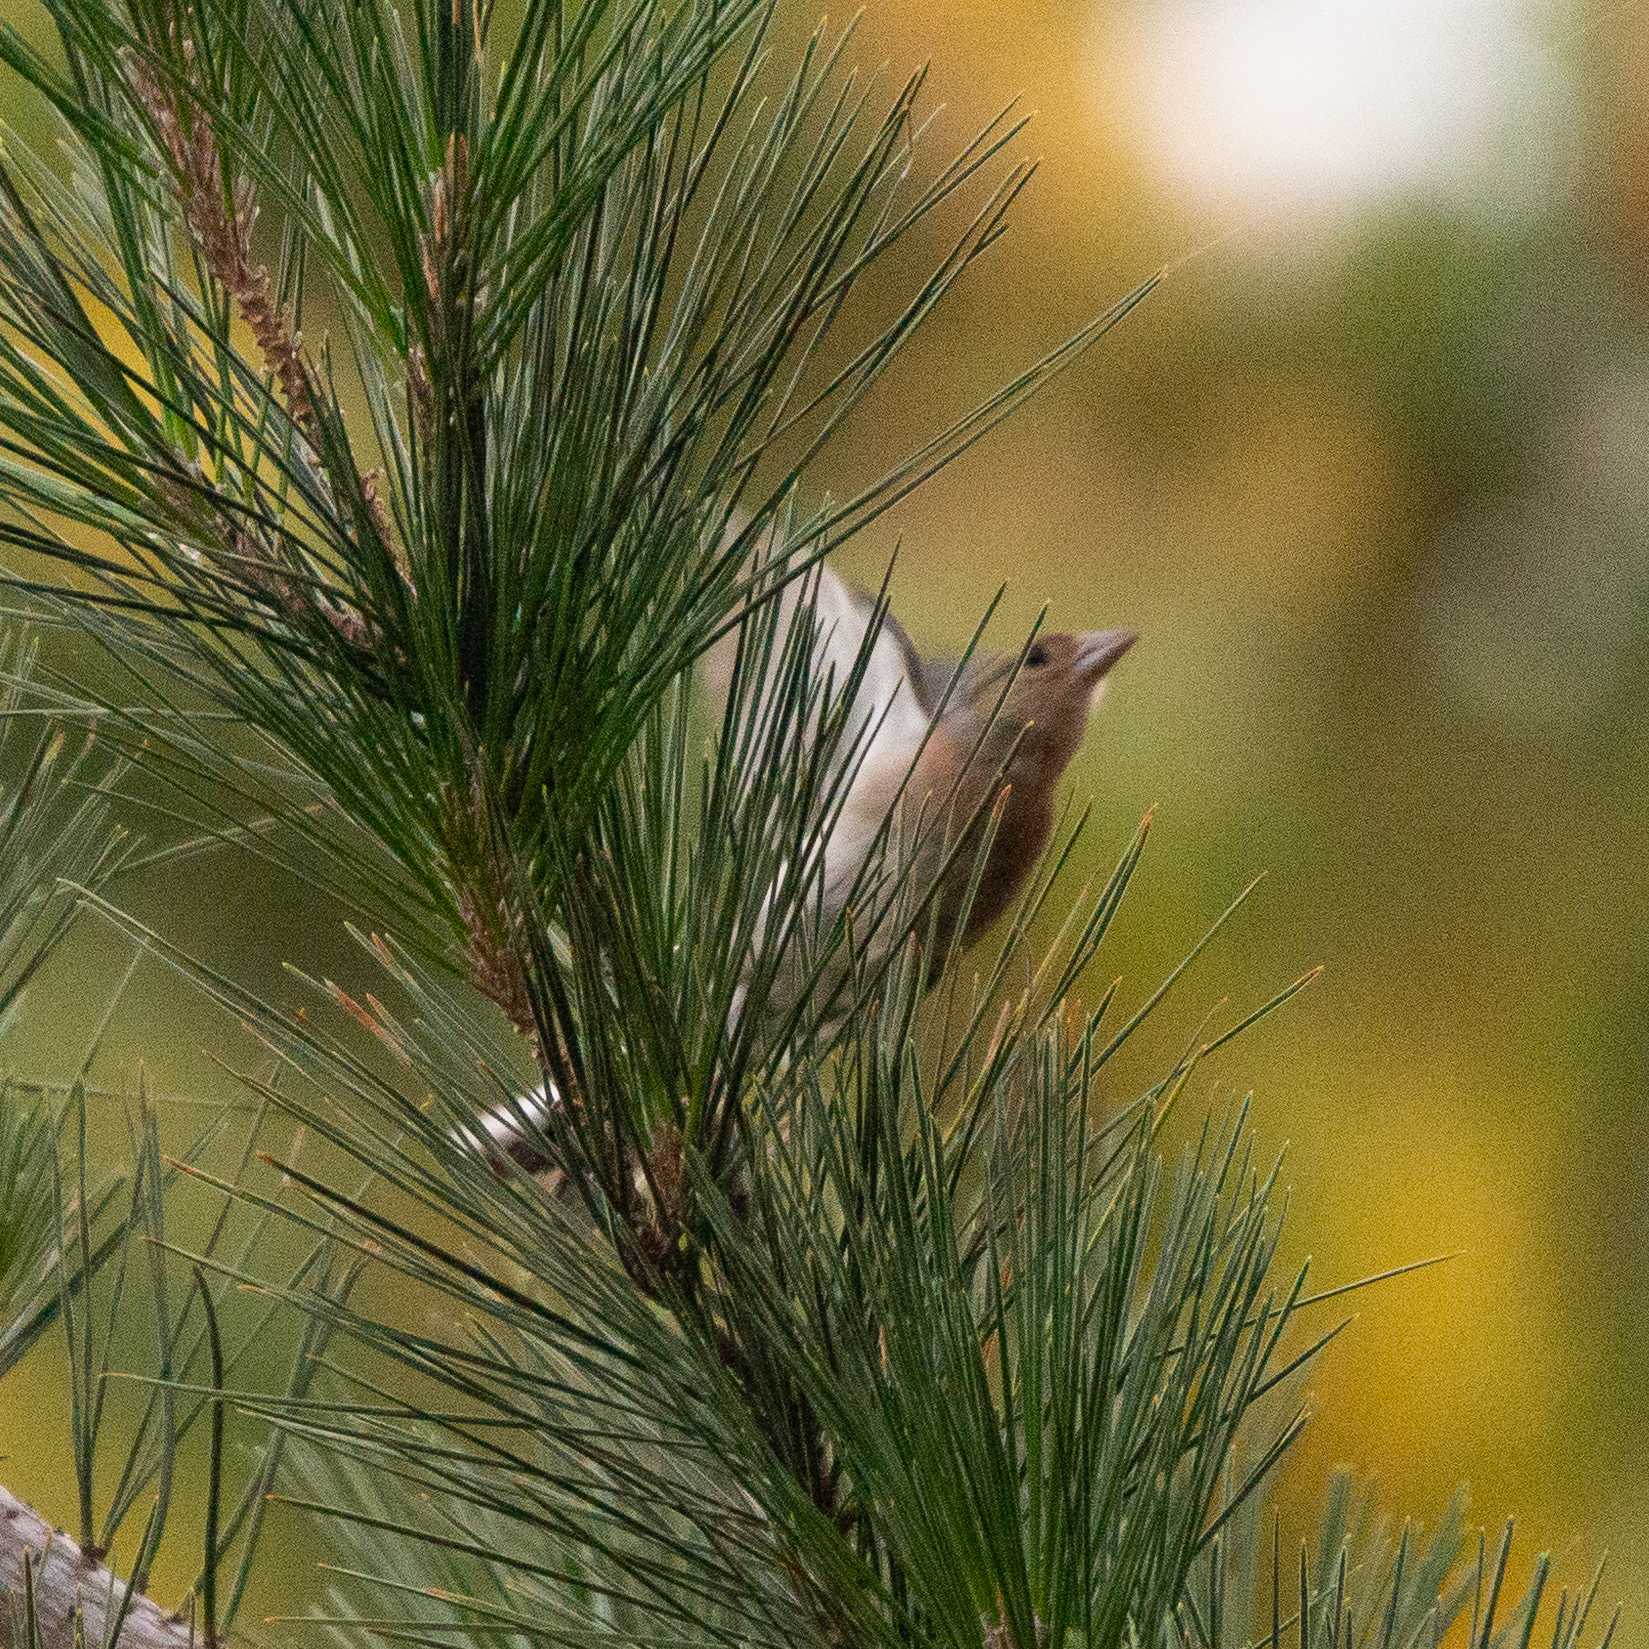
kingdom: Animalia
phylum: Chordata
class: Aves
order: Passeriformes
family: Fringillidae
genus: Fringilla
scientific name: Fringilla coelebs
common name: Common chaffinch
